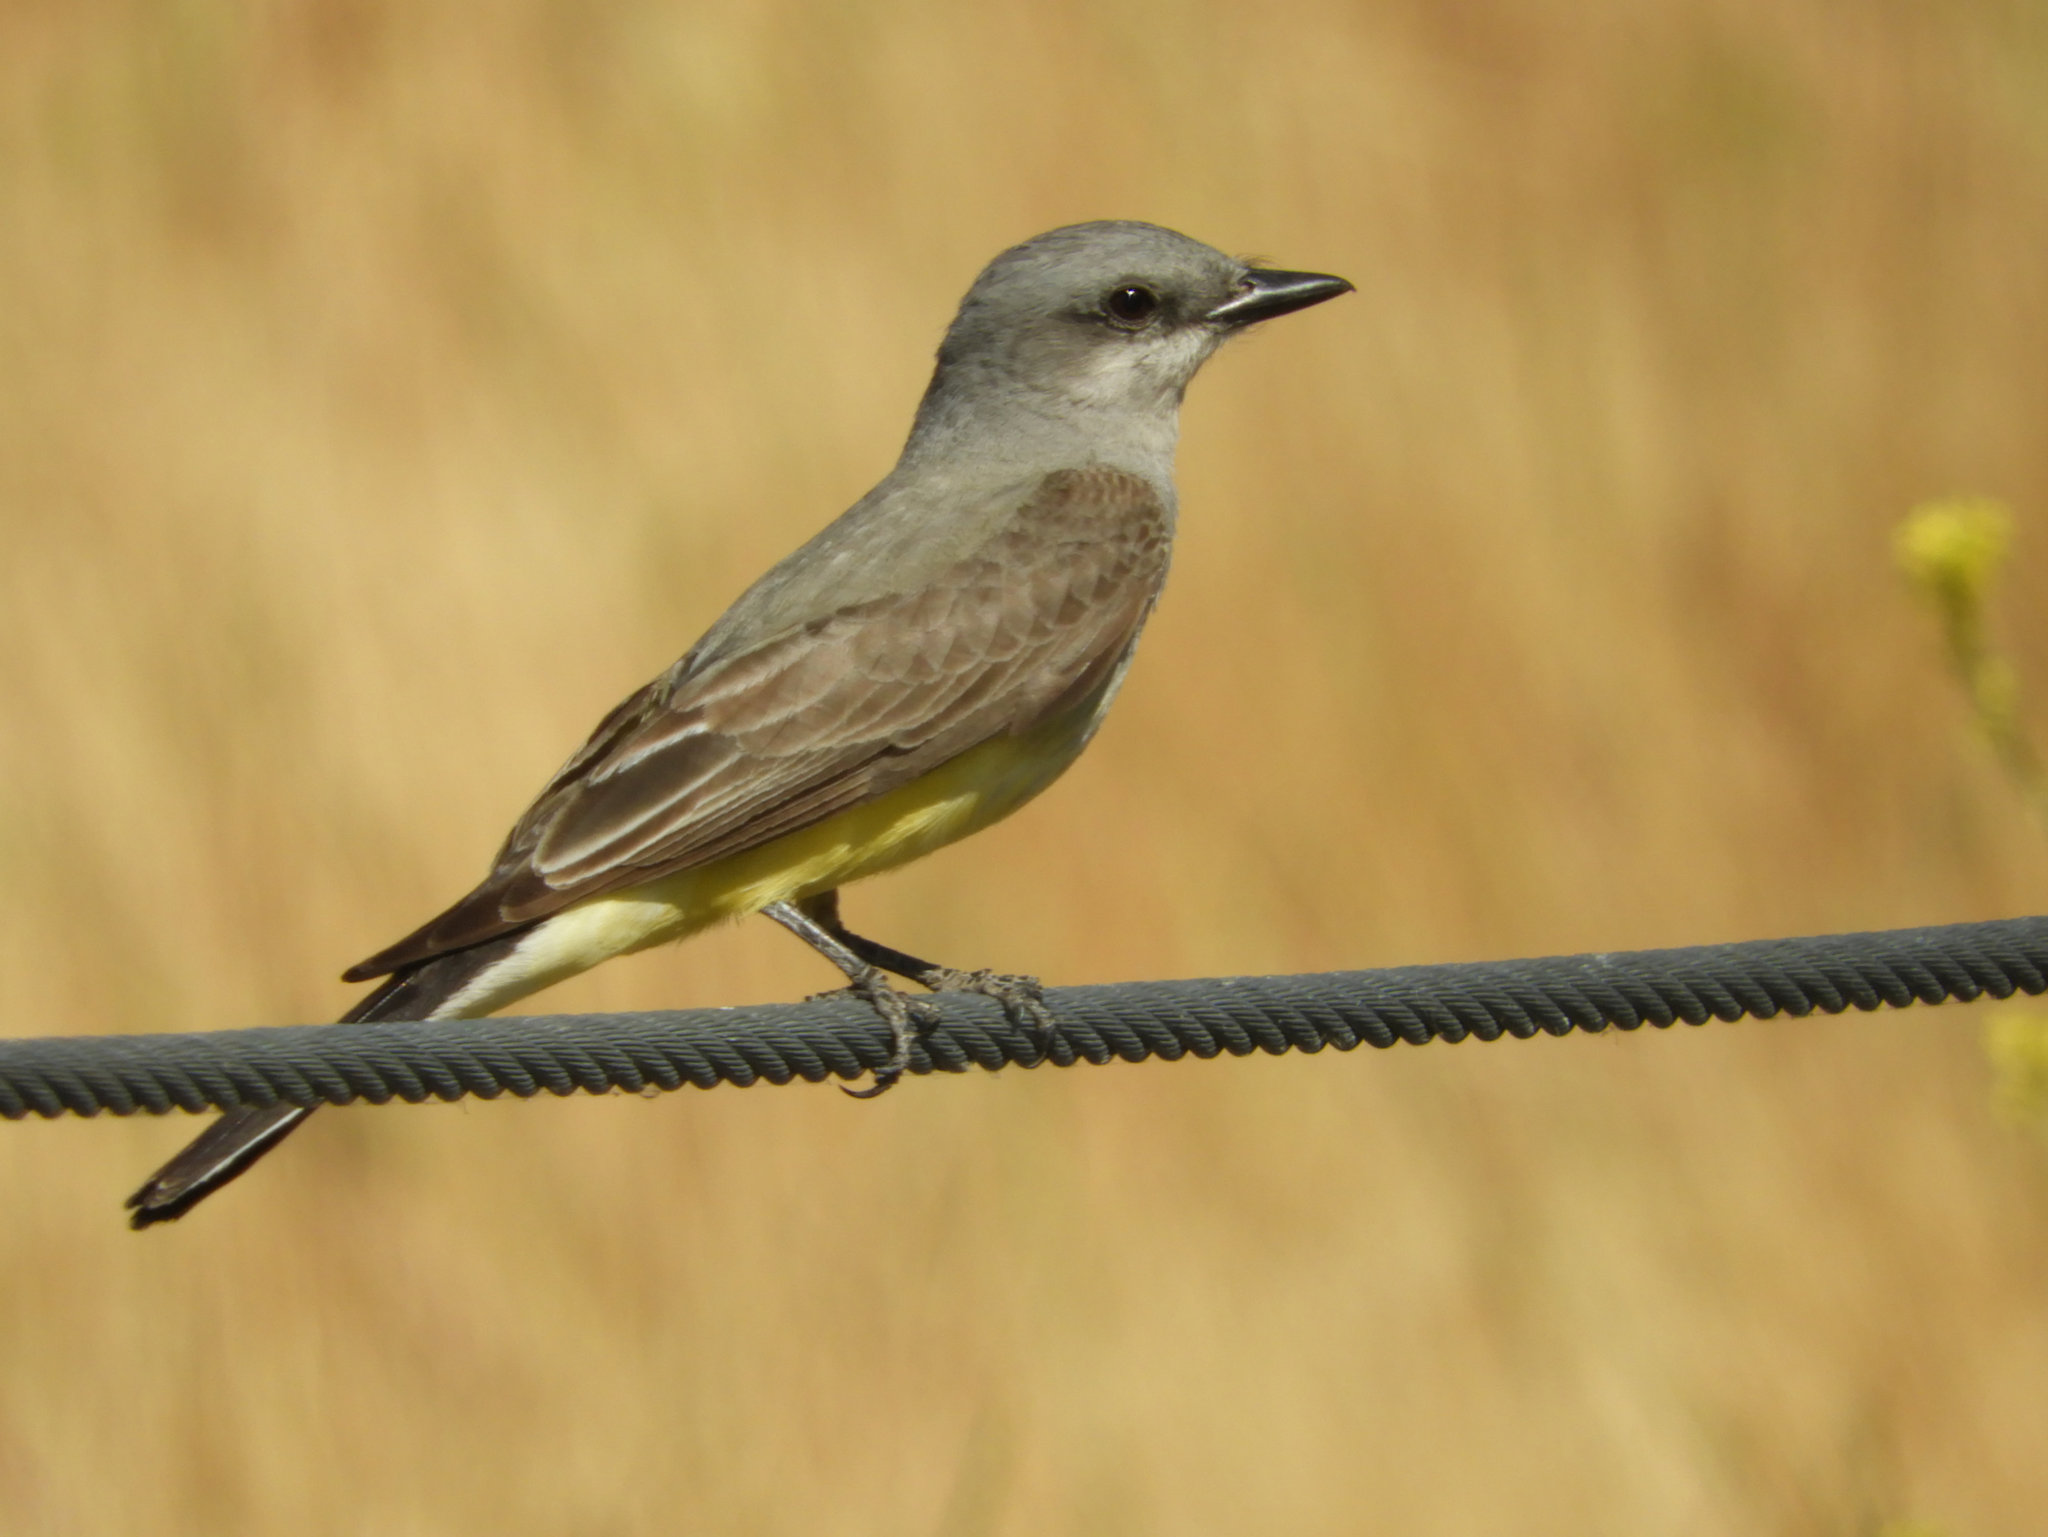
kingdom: Animalia
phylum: Chordata
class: Aves
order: Passeriformes
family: Tyrannidae
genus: Tyrannus
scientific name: Tyrannus verticalis
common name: Western kingbird
